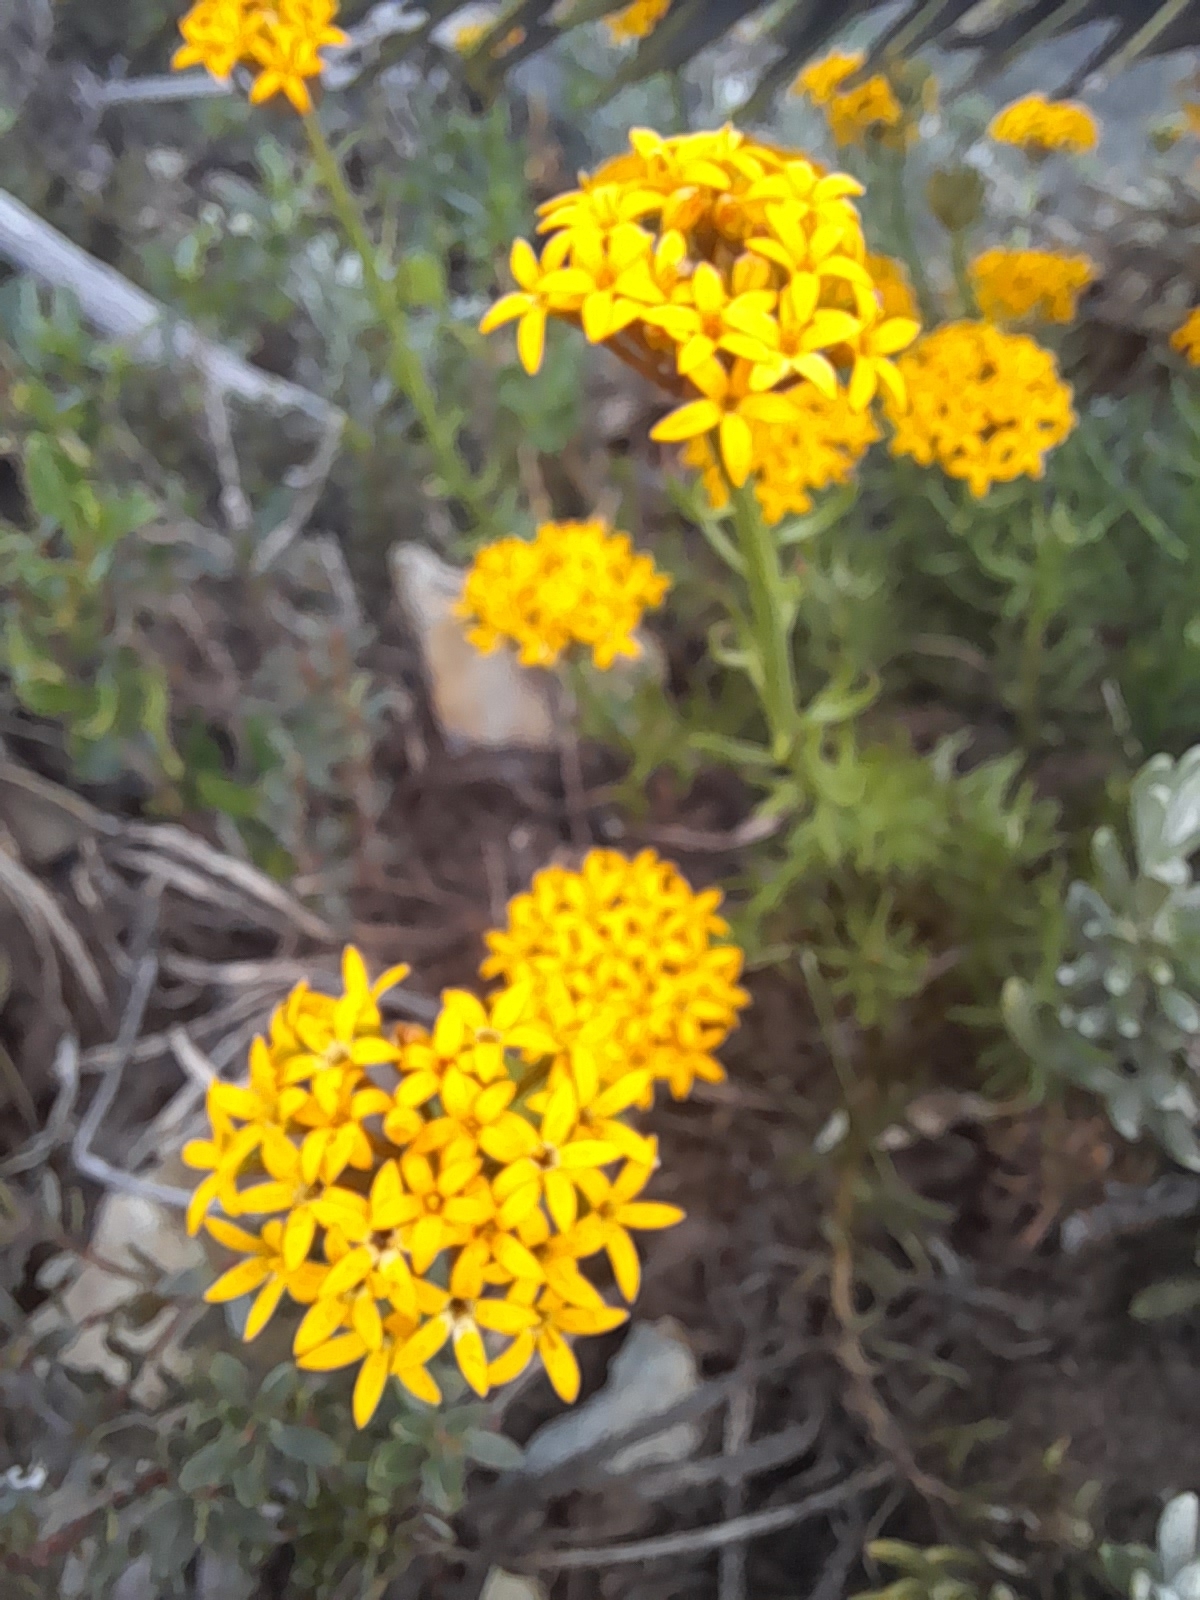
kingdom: Plantae
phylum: Tracheophyta
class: Magnoliopsida
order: Santalales
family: Schoepfiaceae
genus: Quinchamalium
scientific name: Quinchamalium chilense
